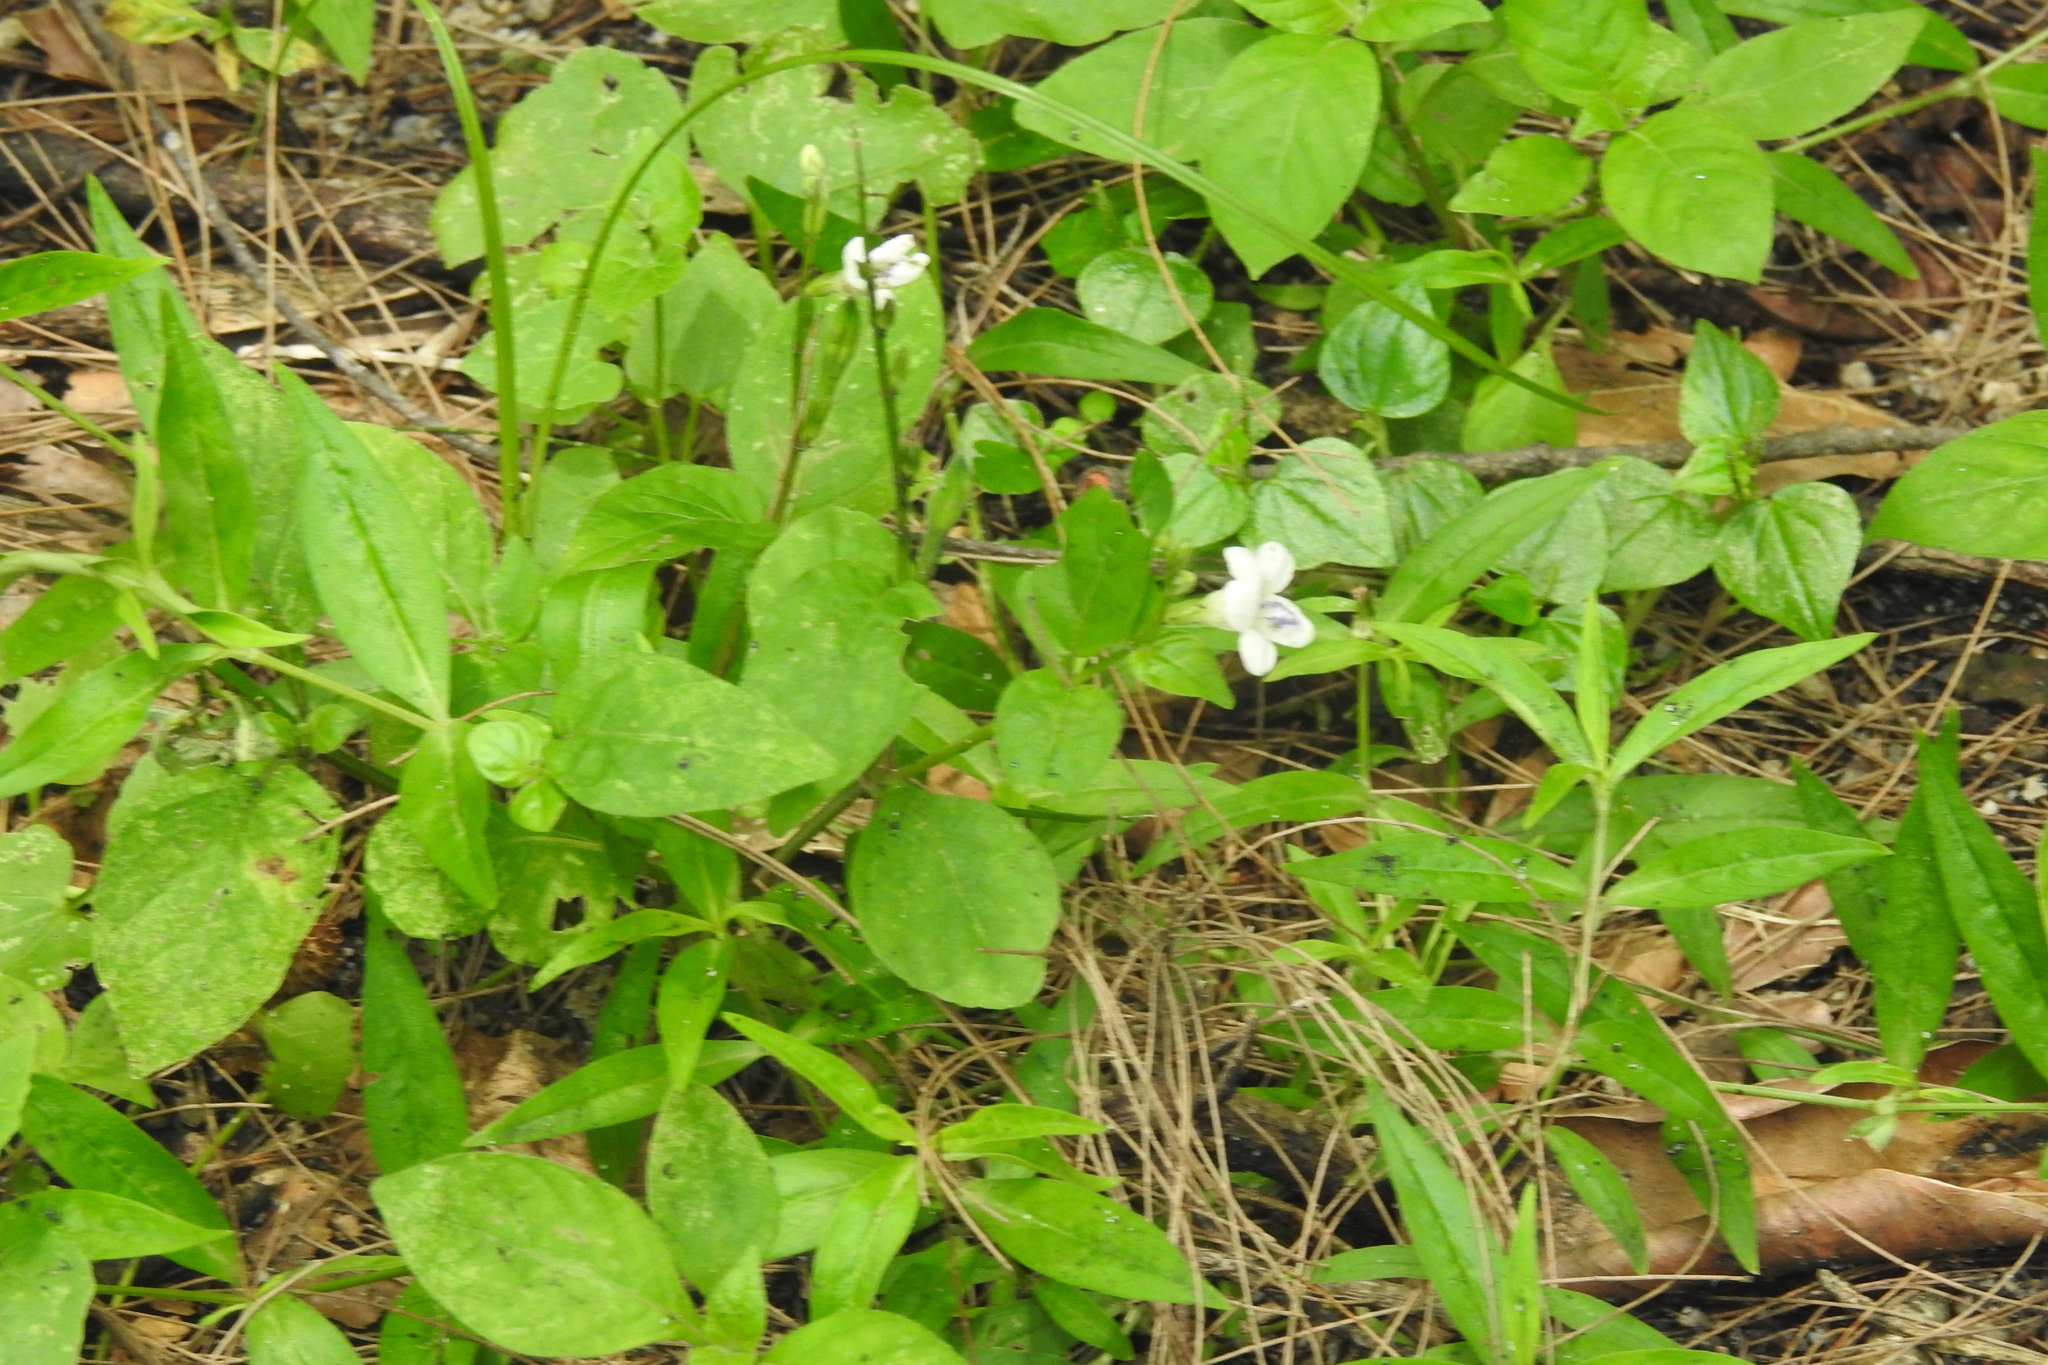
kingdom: Plantae
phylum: Tracheophyta
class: Magnoliopsida
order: Lamiales
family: Acanthaceae
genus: Asystasia
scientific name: Asystasia intrusa
